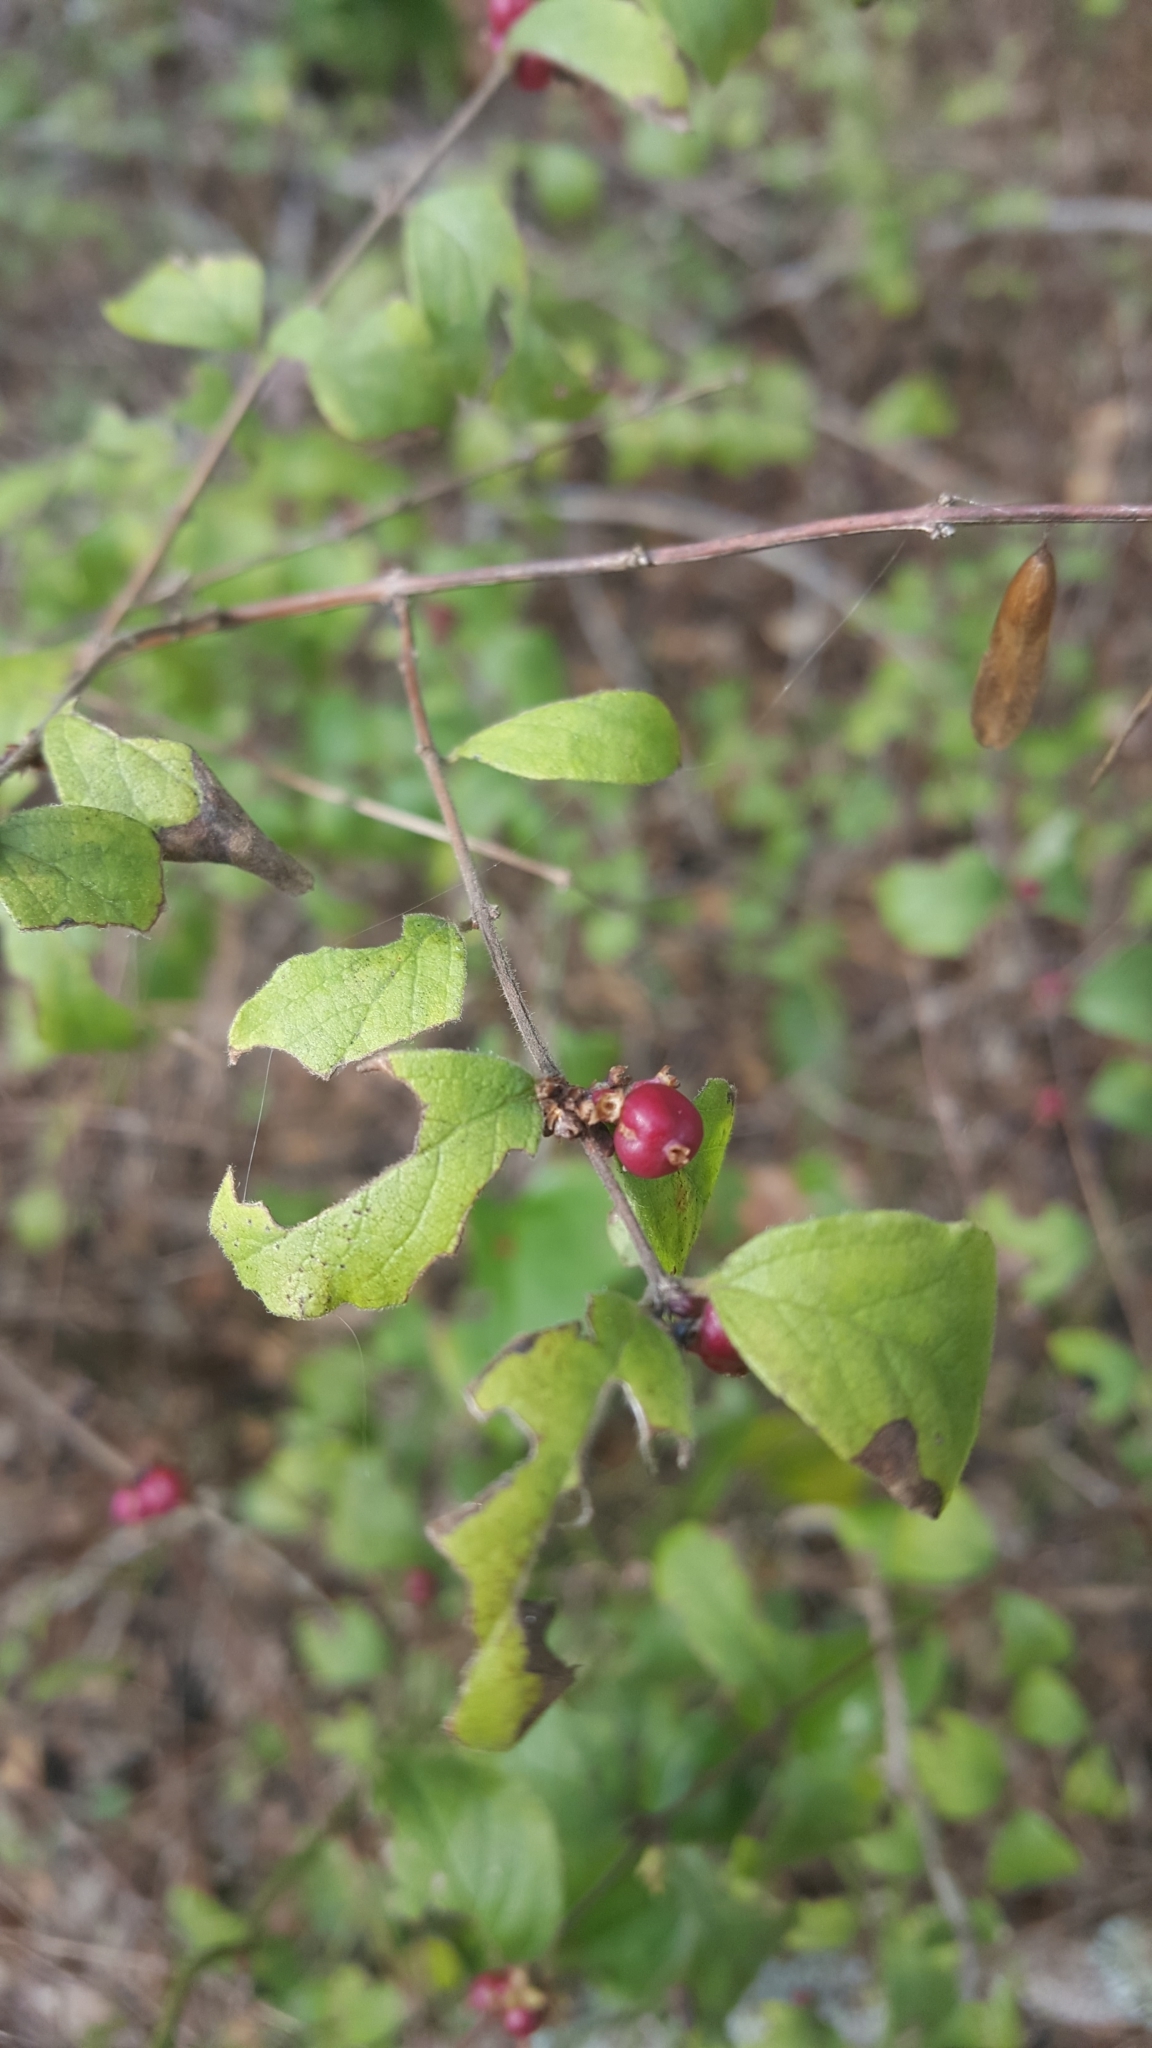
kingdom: Plantae
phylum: Tracheophyta
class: Magnoliopsida
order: Dipsacales
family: Caprifoliaceae
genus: Symphoricarpos
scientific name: Symphoricarpos orbiculatus
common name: Coralberry
